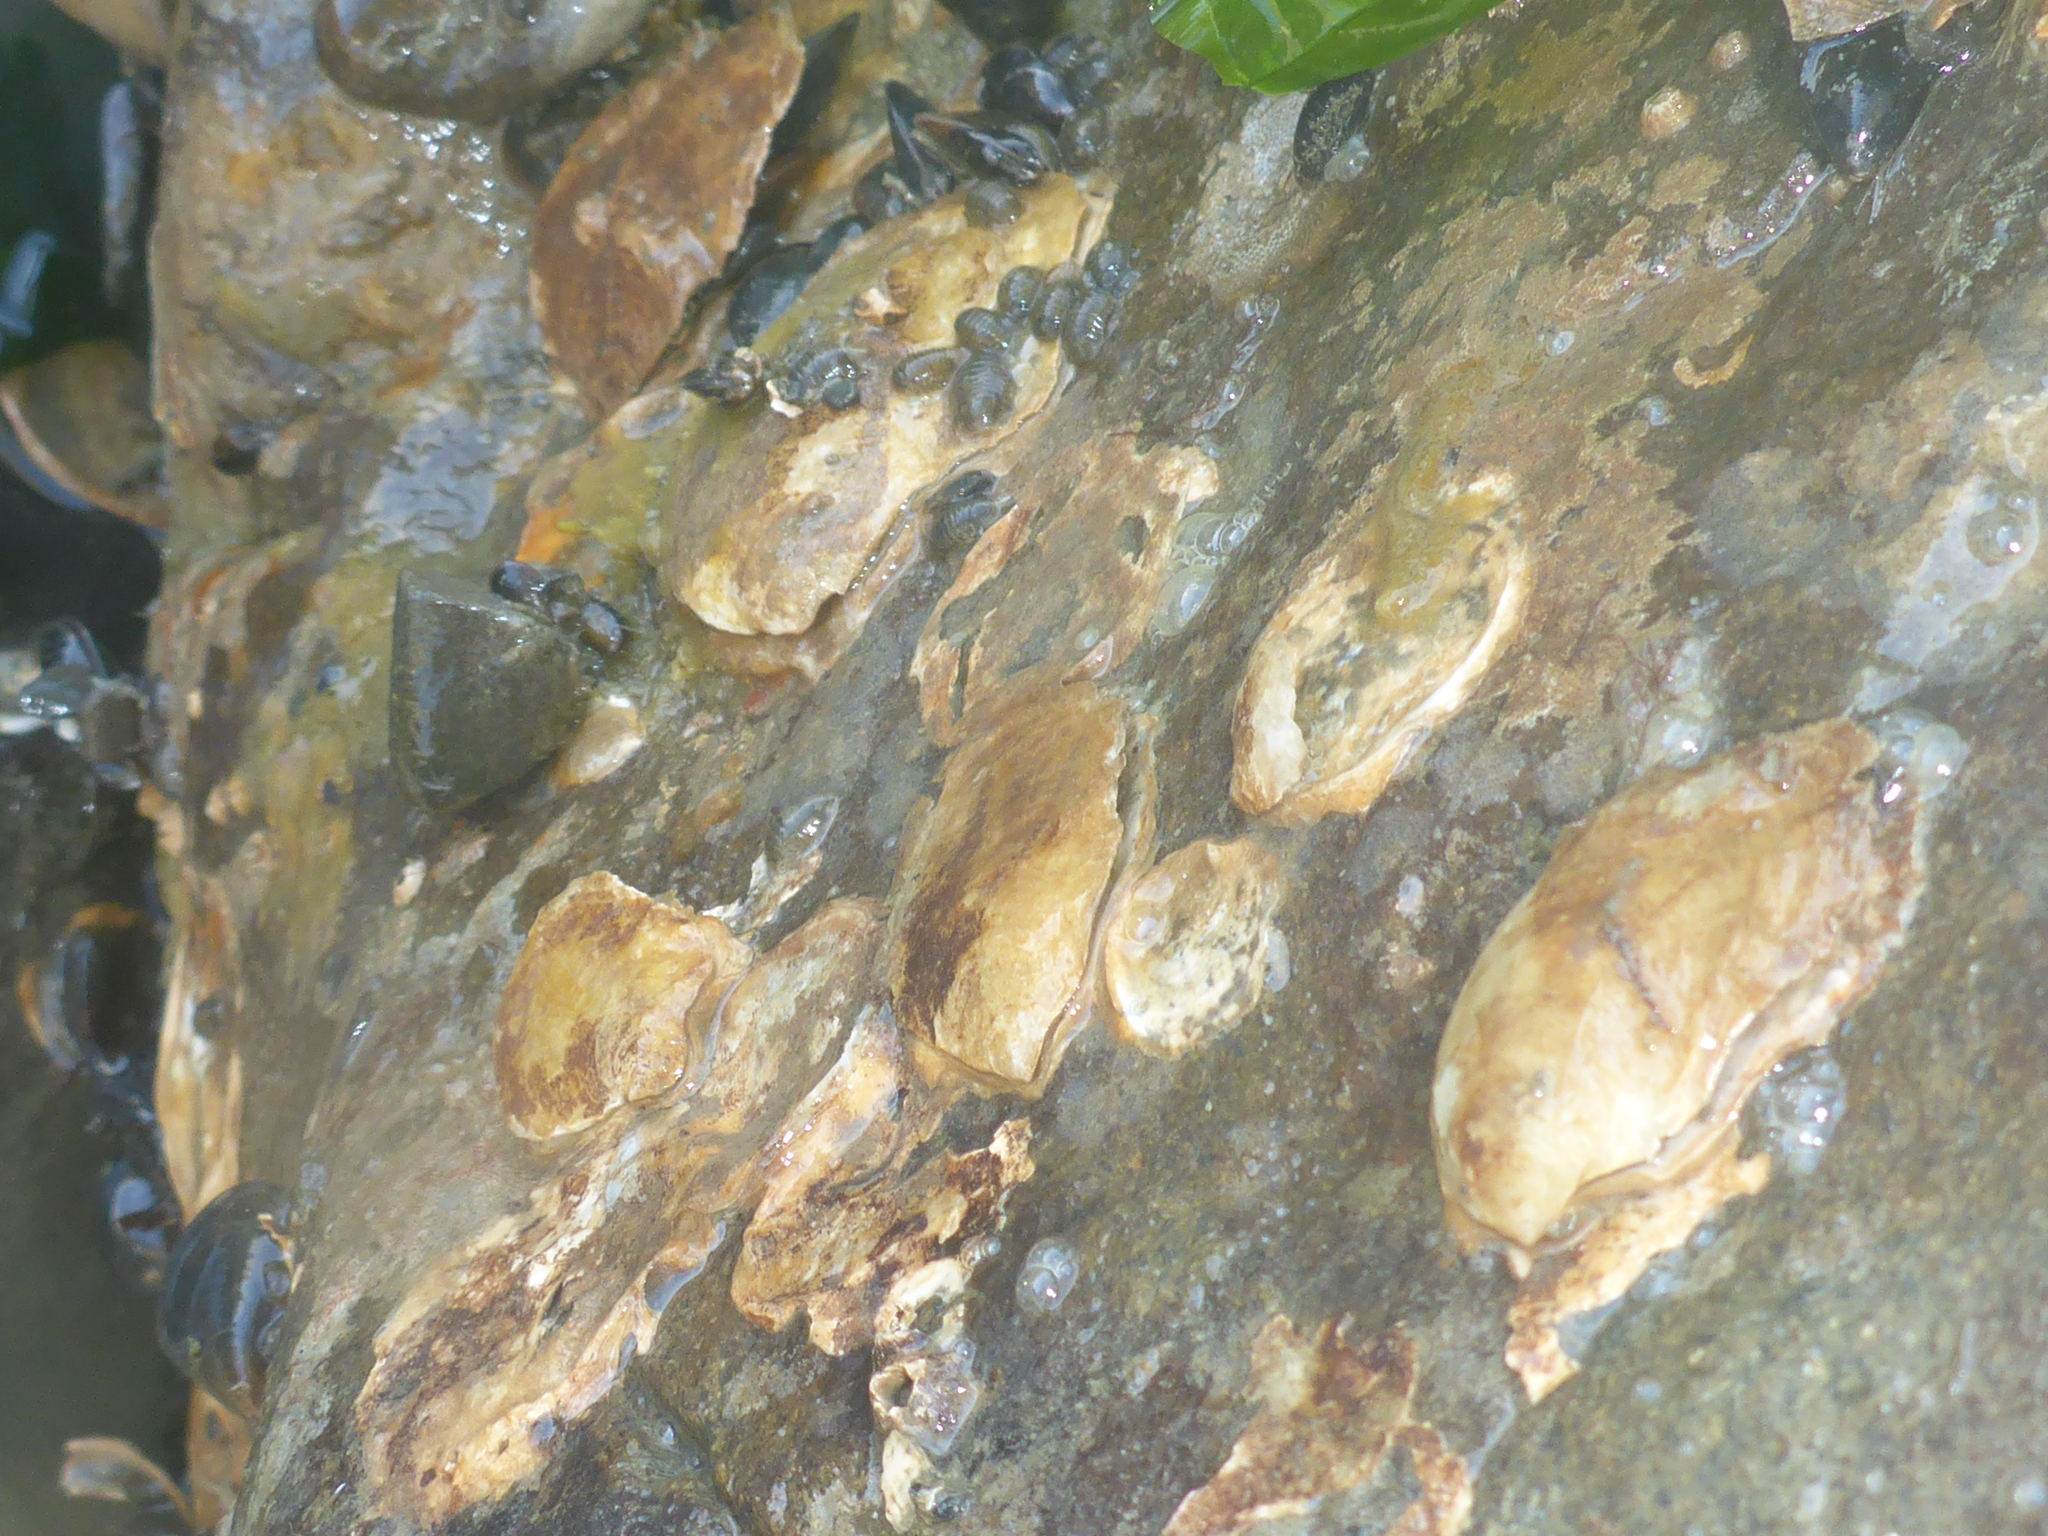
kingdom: Animalia
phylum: Mollusca
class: Bivalvia
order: Ostreida
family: Ostreidae
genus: Ostrea
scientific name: Ostrea lurida
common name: Olympia flat oyster
